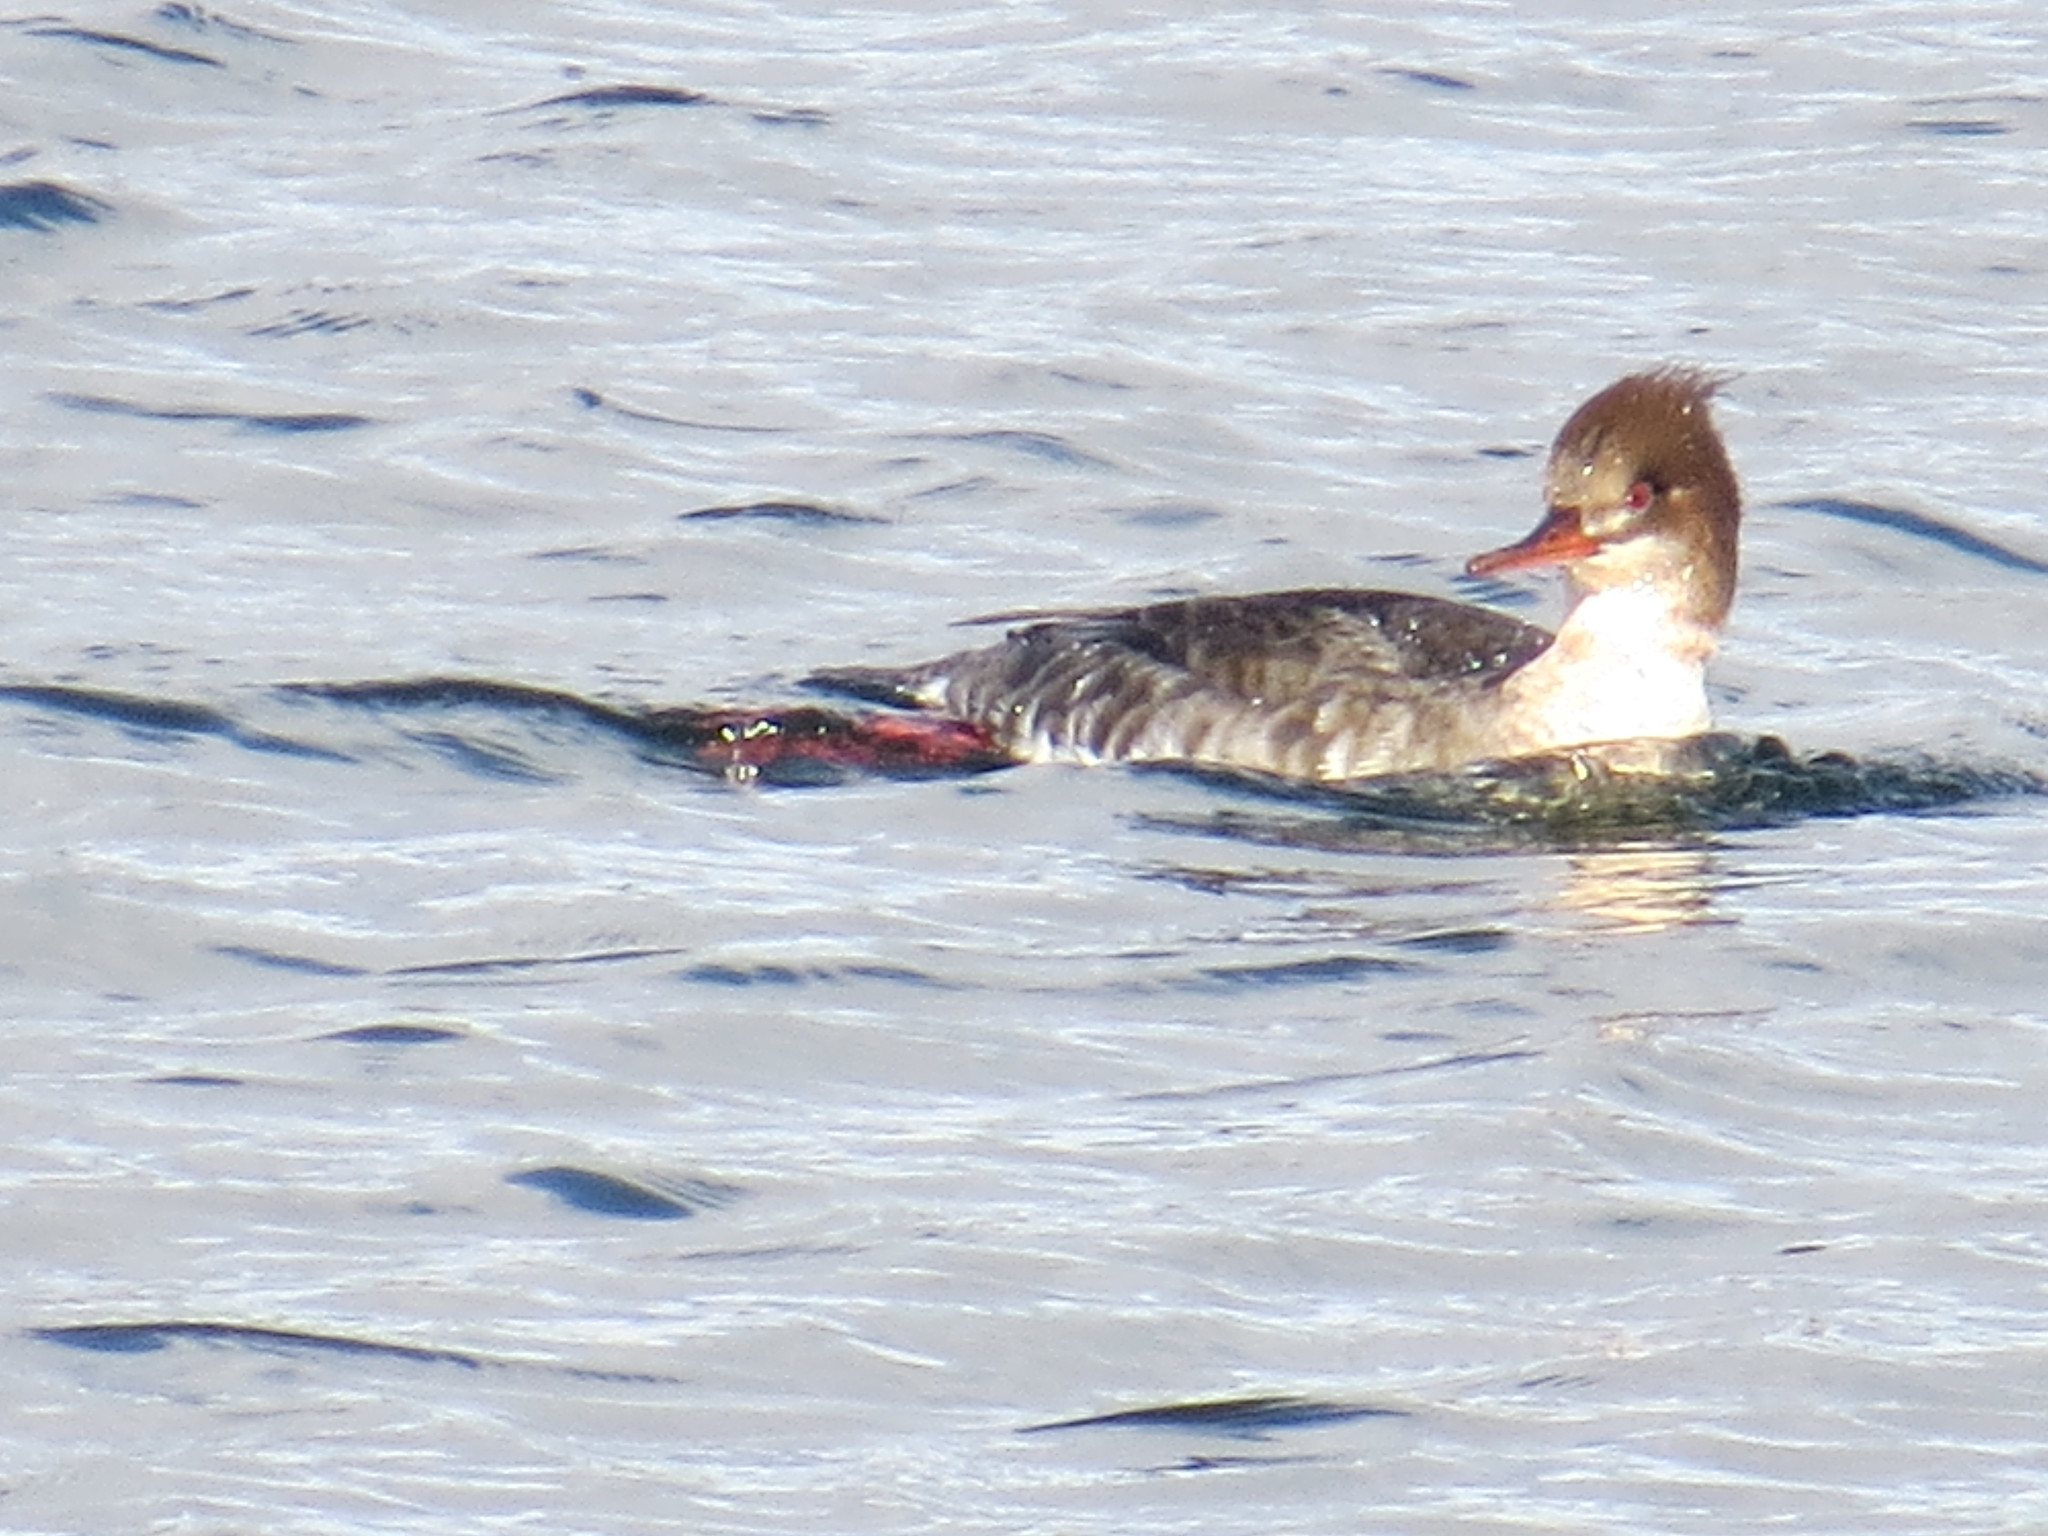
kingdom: Animalia
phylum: Chordata
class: Aves
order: Anseriformes
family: Anatidae
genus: Mergus
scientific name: Mergus serrator
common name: Red-breasted merganser
